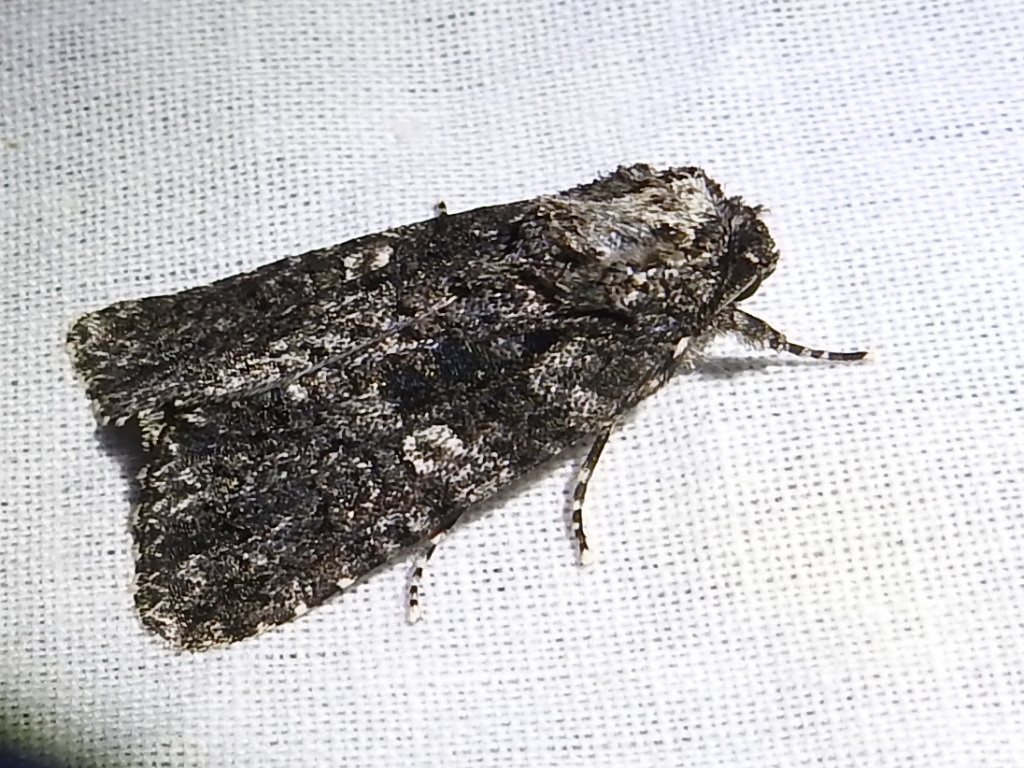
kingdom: Animalia
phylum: Arthropoda
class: Insecta
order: Lepidoptera
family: Noctuidae
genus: Acronicta
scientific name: Acronicta afflicta
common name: Afflicted dagger moth
